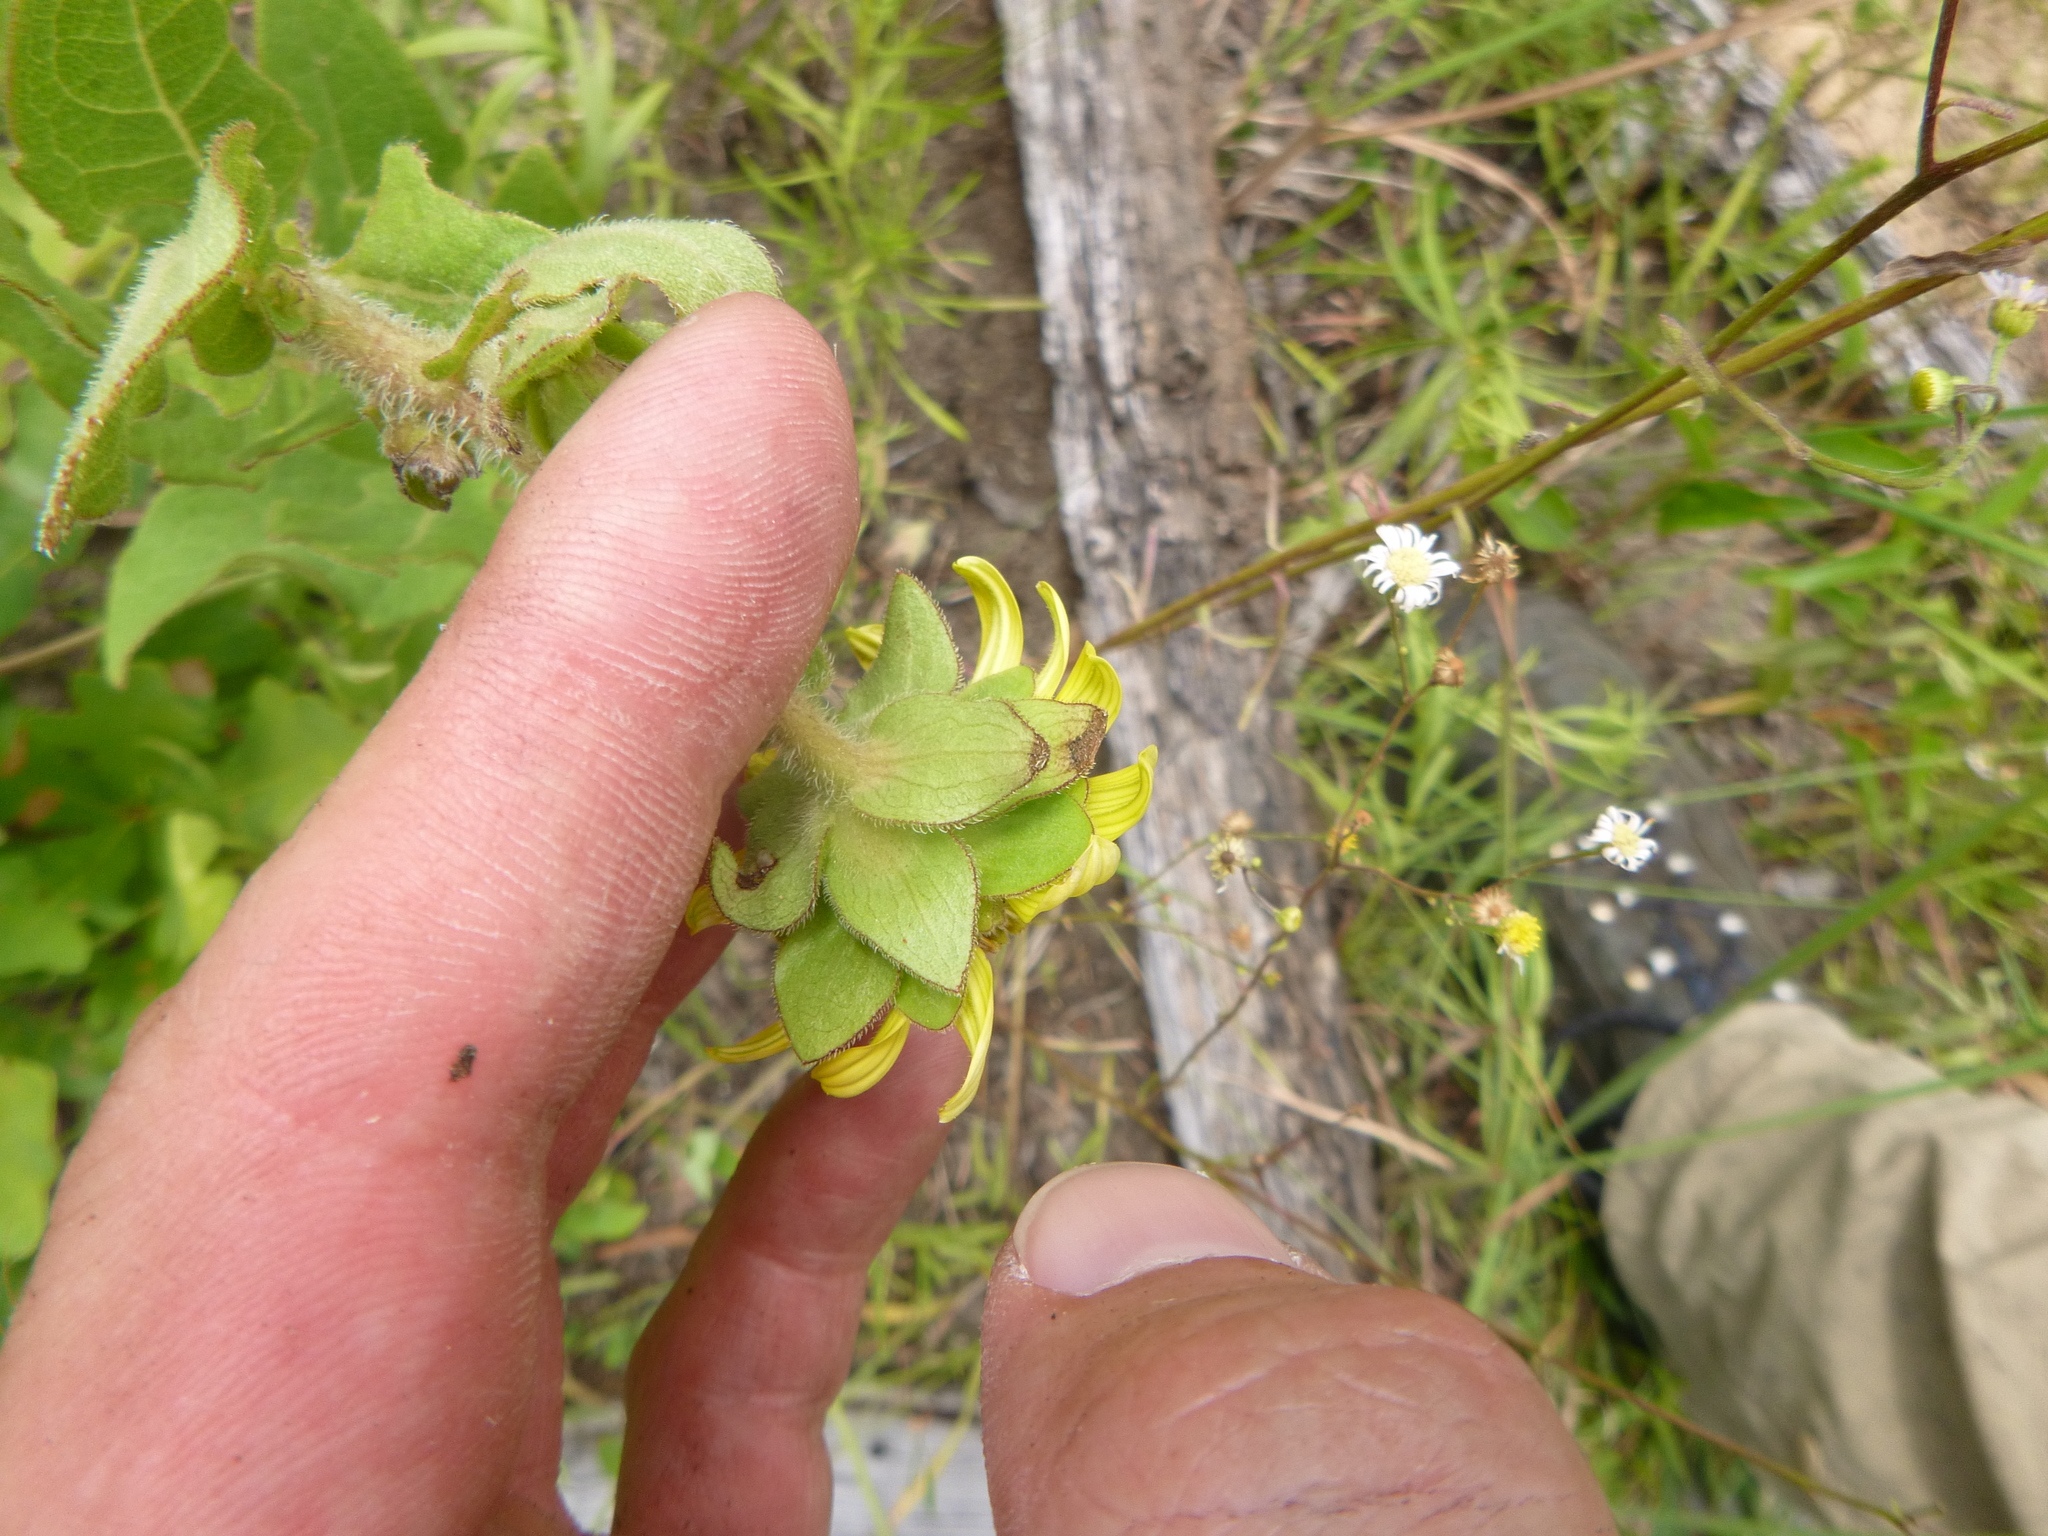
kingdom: Plantae
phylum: Tracheophyta
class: Magnoliopsida
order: Asterales
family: Asteraceae
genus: Silphium
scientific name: Silphium asteriscus
